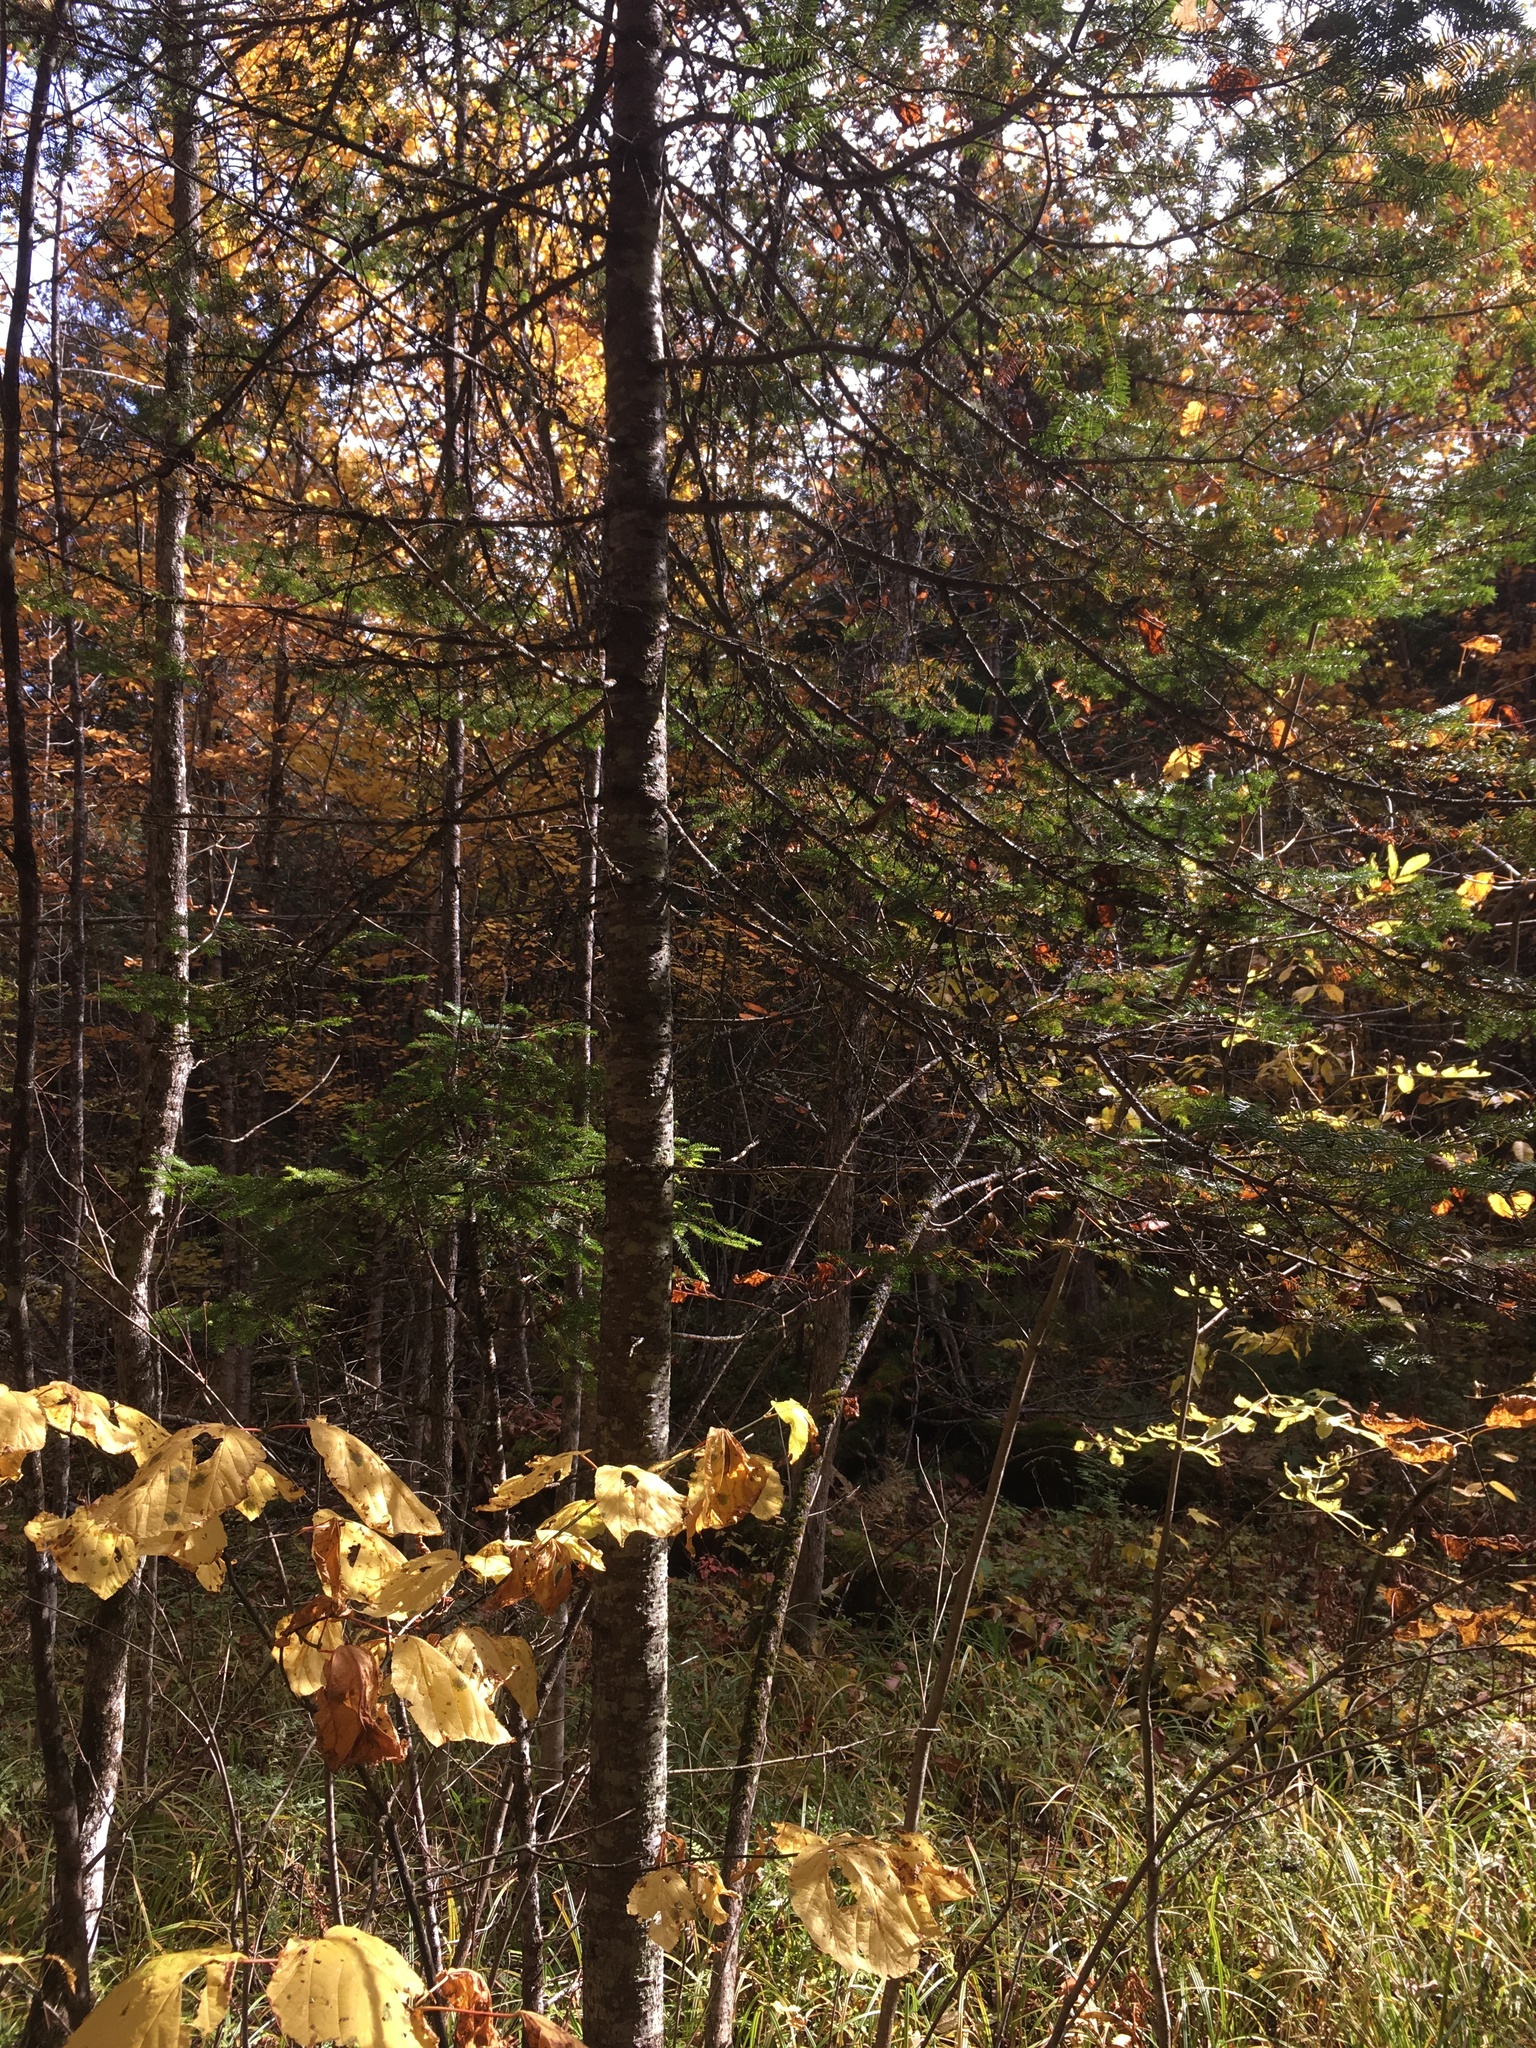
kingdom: Plantae
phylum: Tracheophyta
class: Pinopsida
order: Pinales
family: Pinaceae
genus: Abies
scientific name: Abies balsamea
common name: Balsam fir
